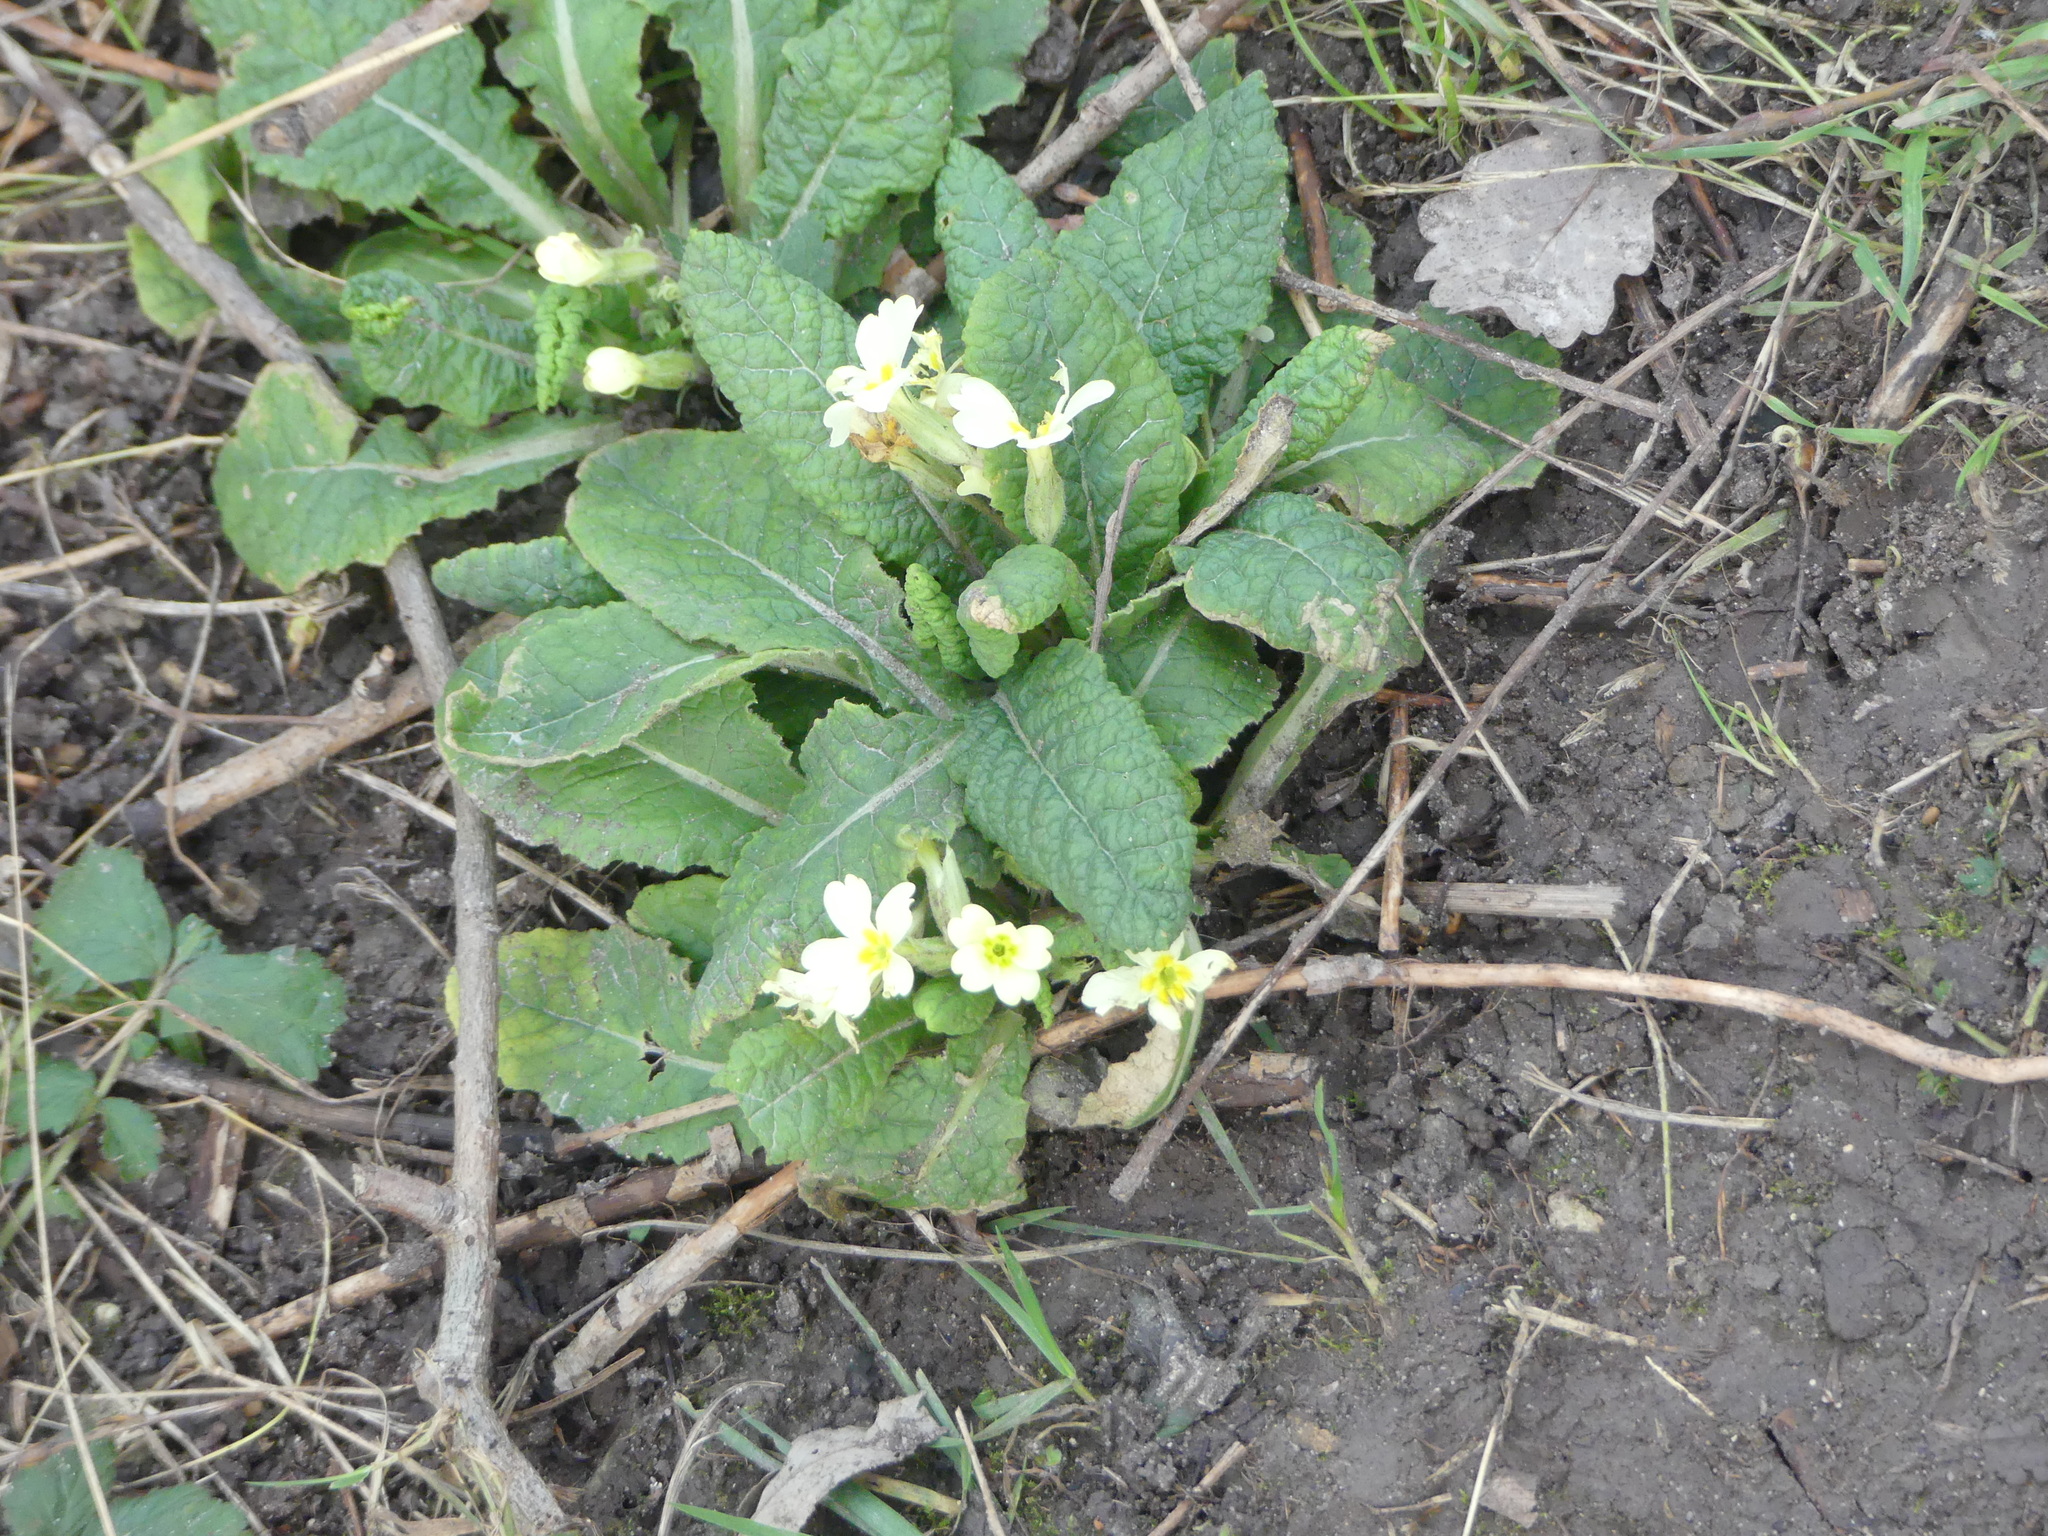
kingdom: Plantae
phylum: Tracheophyta
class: Magnoliopsida
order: Ericales
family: Primulaceae
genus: Primula
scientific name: Primula vulgaris
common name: Primrose
